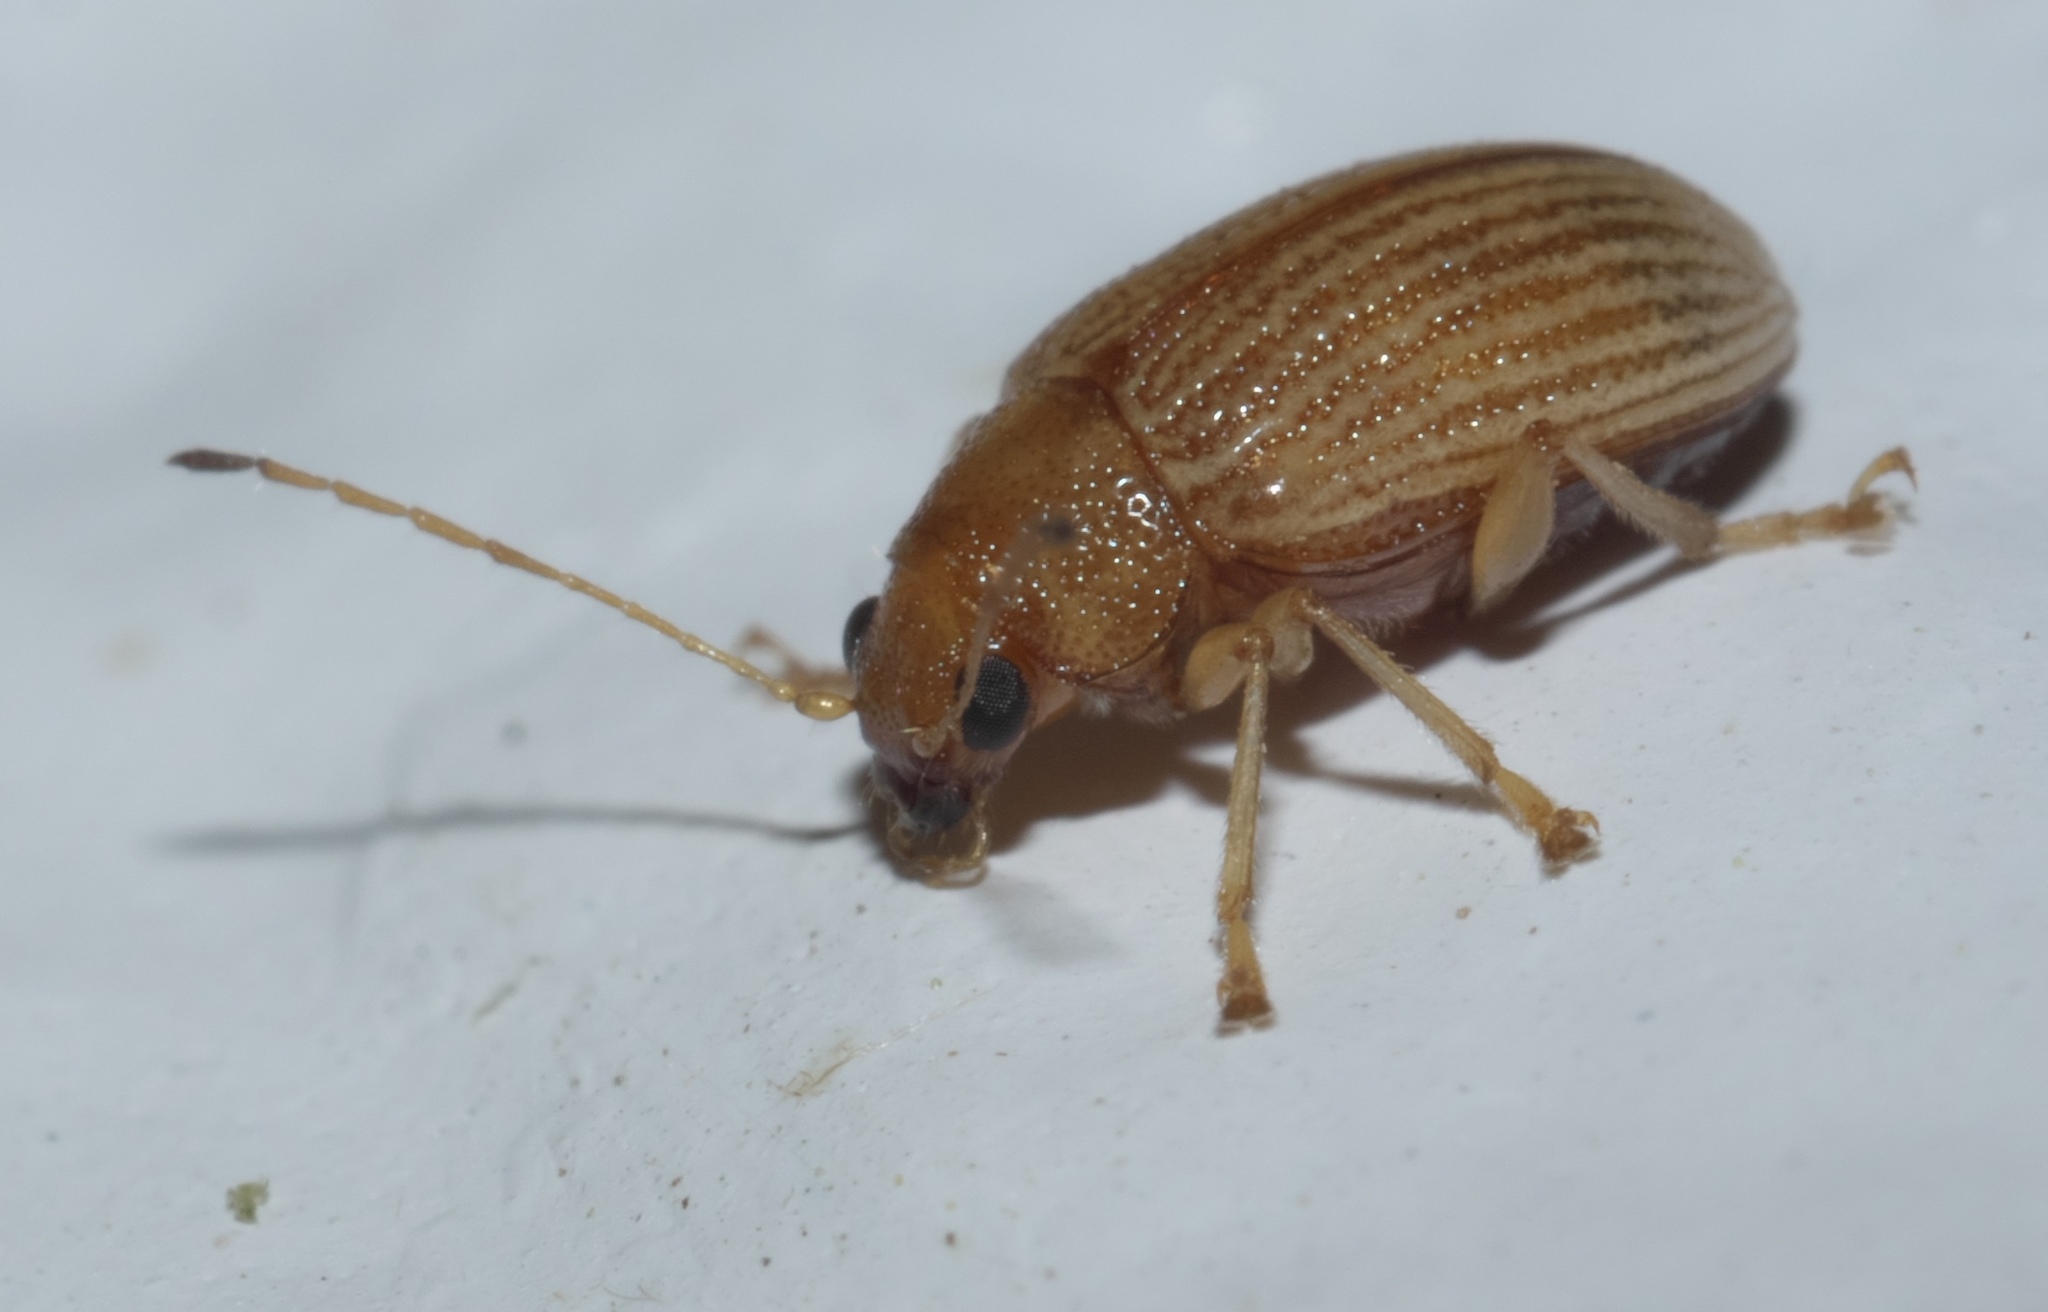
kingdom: Animalia
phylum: Arthropoda
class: Insecta
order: Coleoptera
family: Chrysomelidae
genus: Colaspis
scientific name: Colaspis brunnea
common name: Grape colaspis
